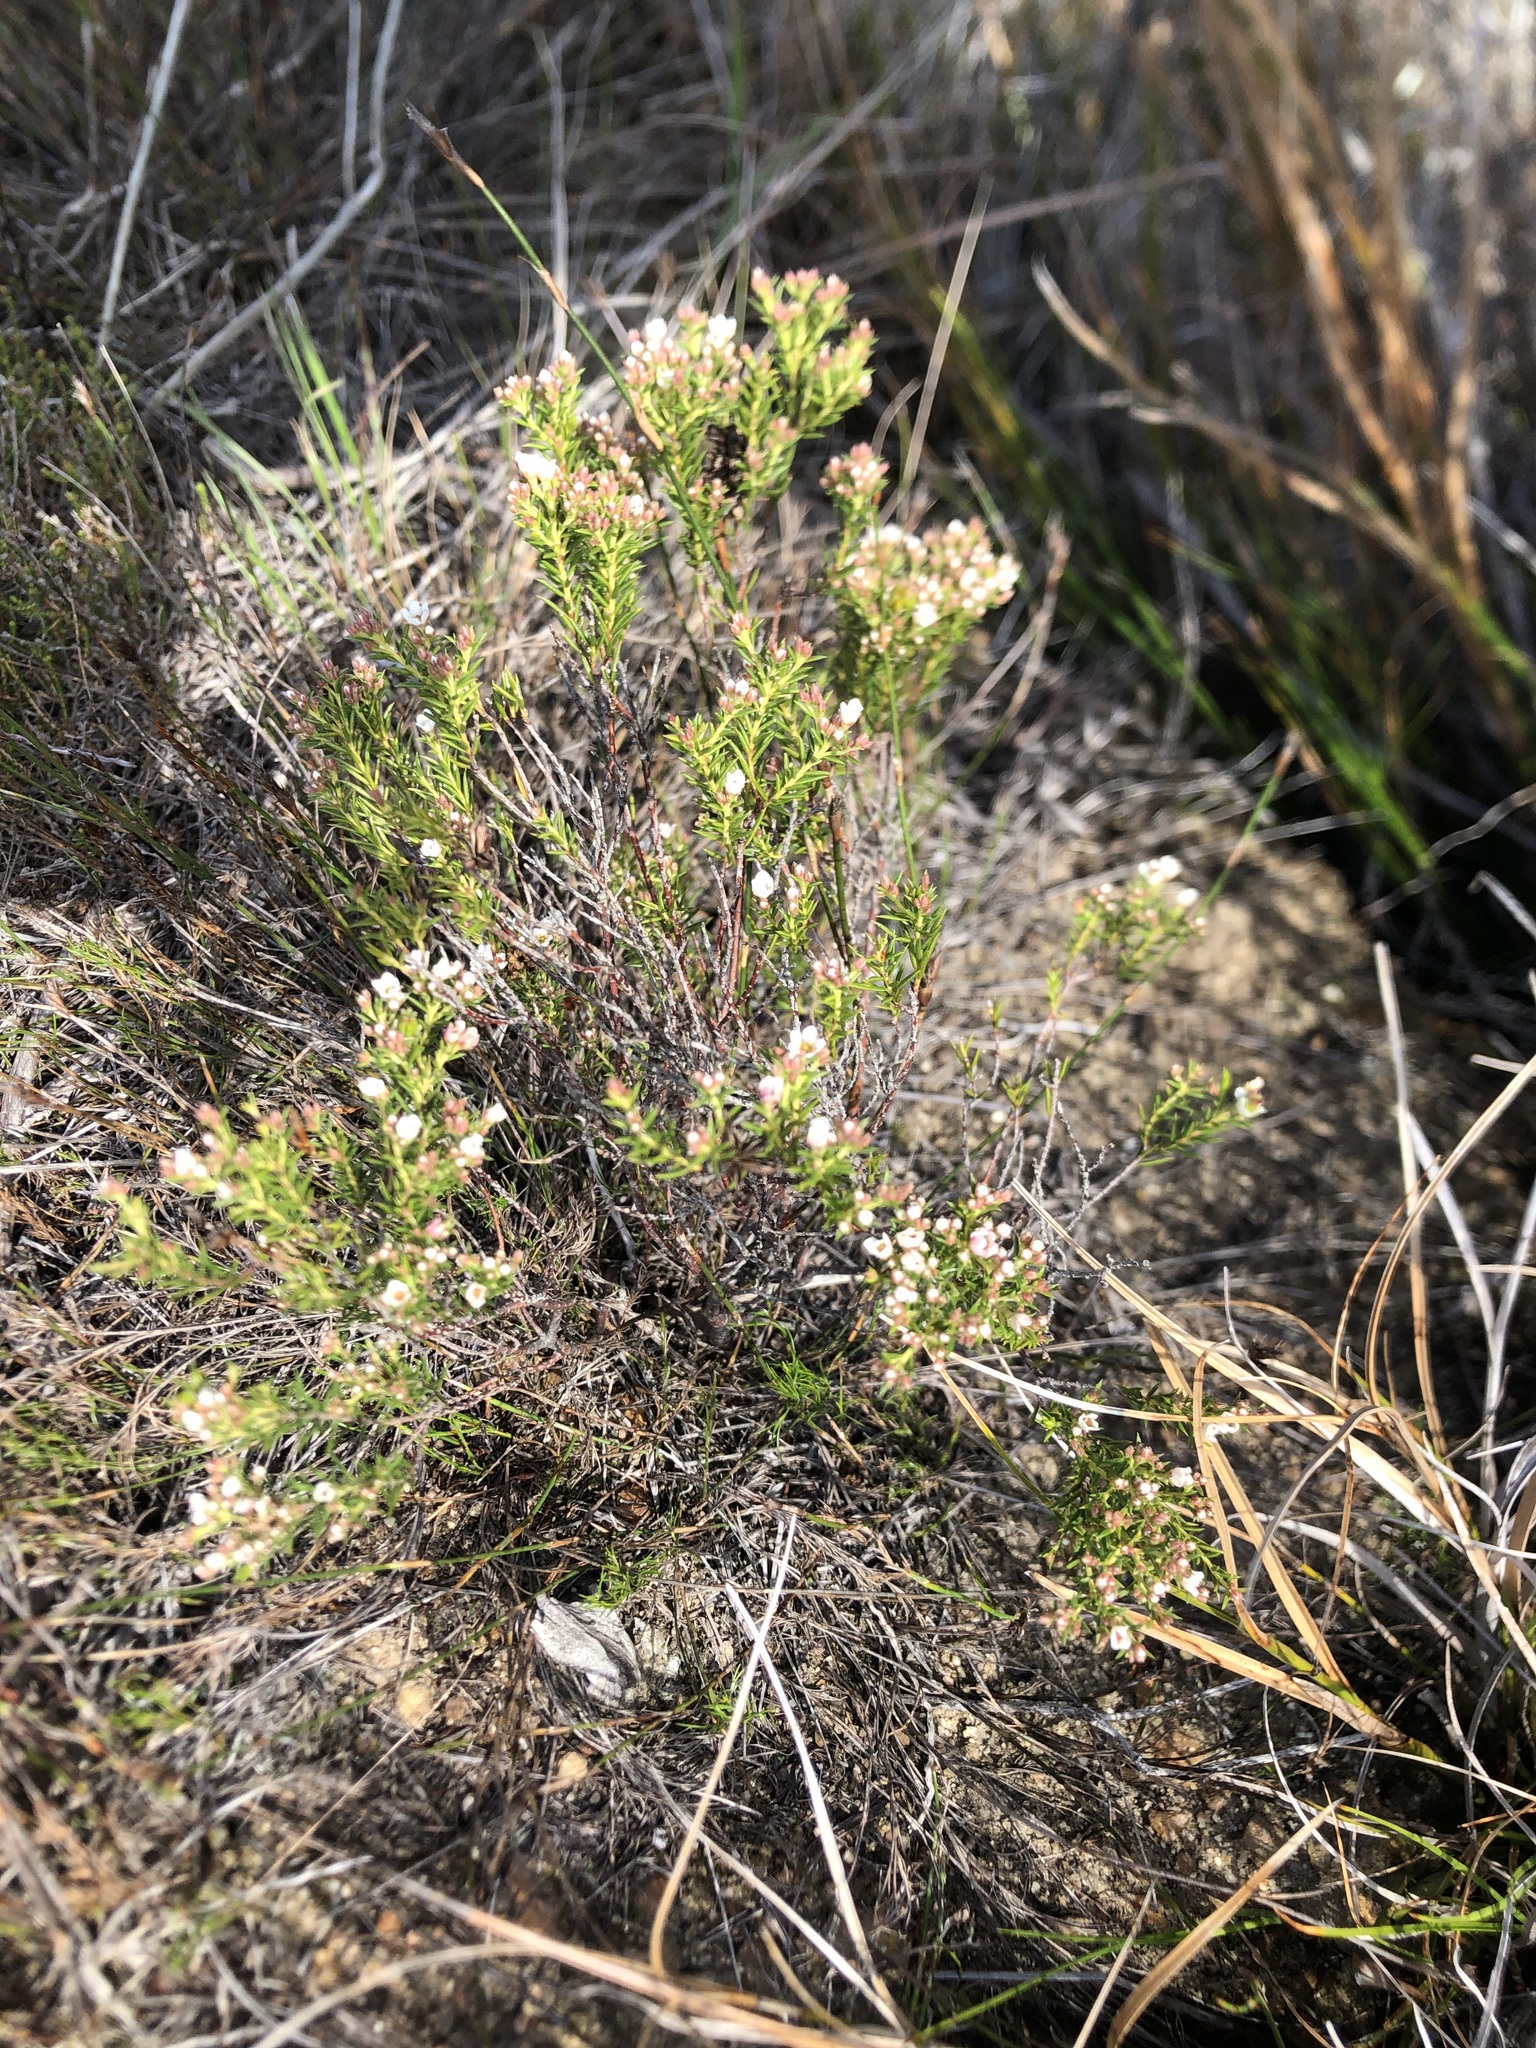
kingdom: Plantae
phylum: Tracheophyta
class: Magnoliopsida
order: Sapindales
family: Rutaceae
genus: Diosma
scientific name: Diosma hirsuta
